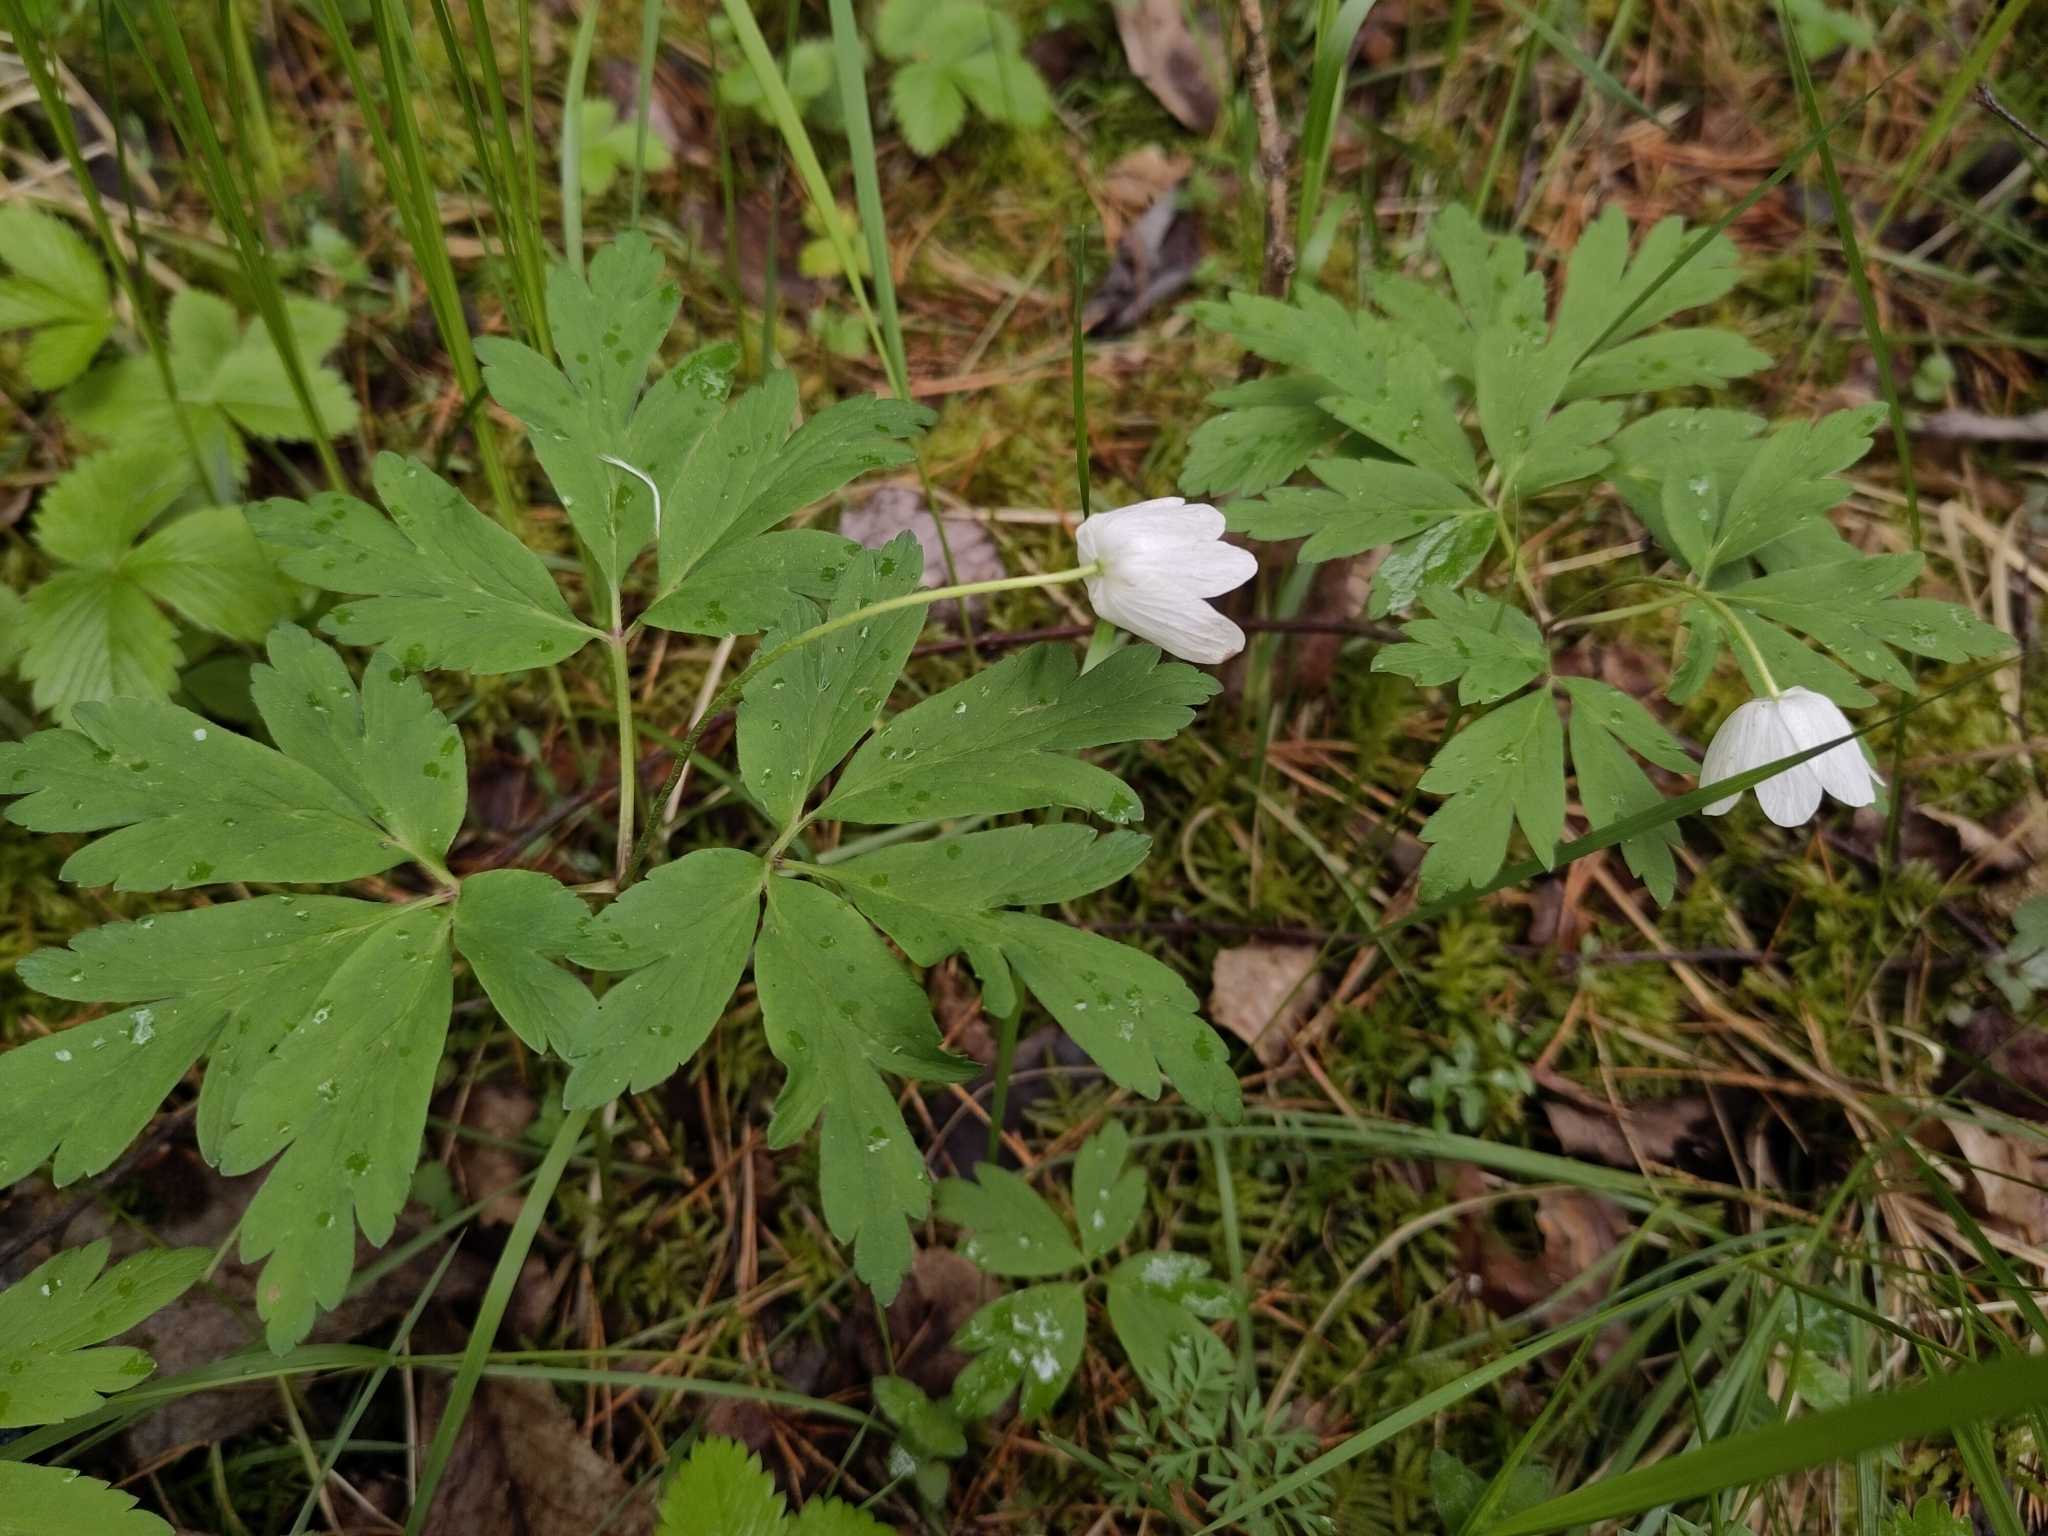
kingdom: Plantae
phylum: Tracheophyta
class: Magnoliopsida
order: Ranunculales
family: Ranunculaceae
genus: Anemone
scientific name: Anemone nemorosa
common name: Wood anemone
